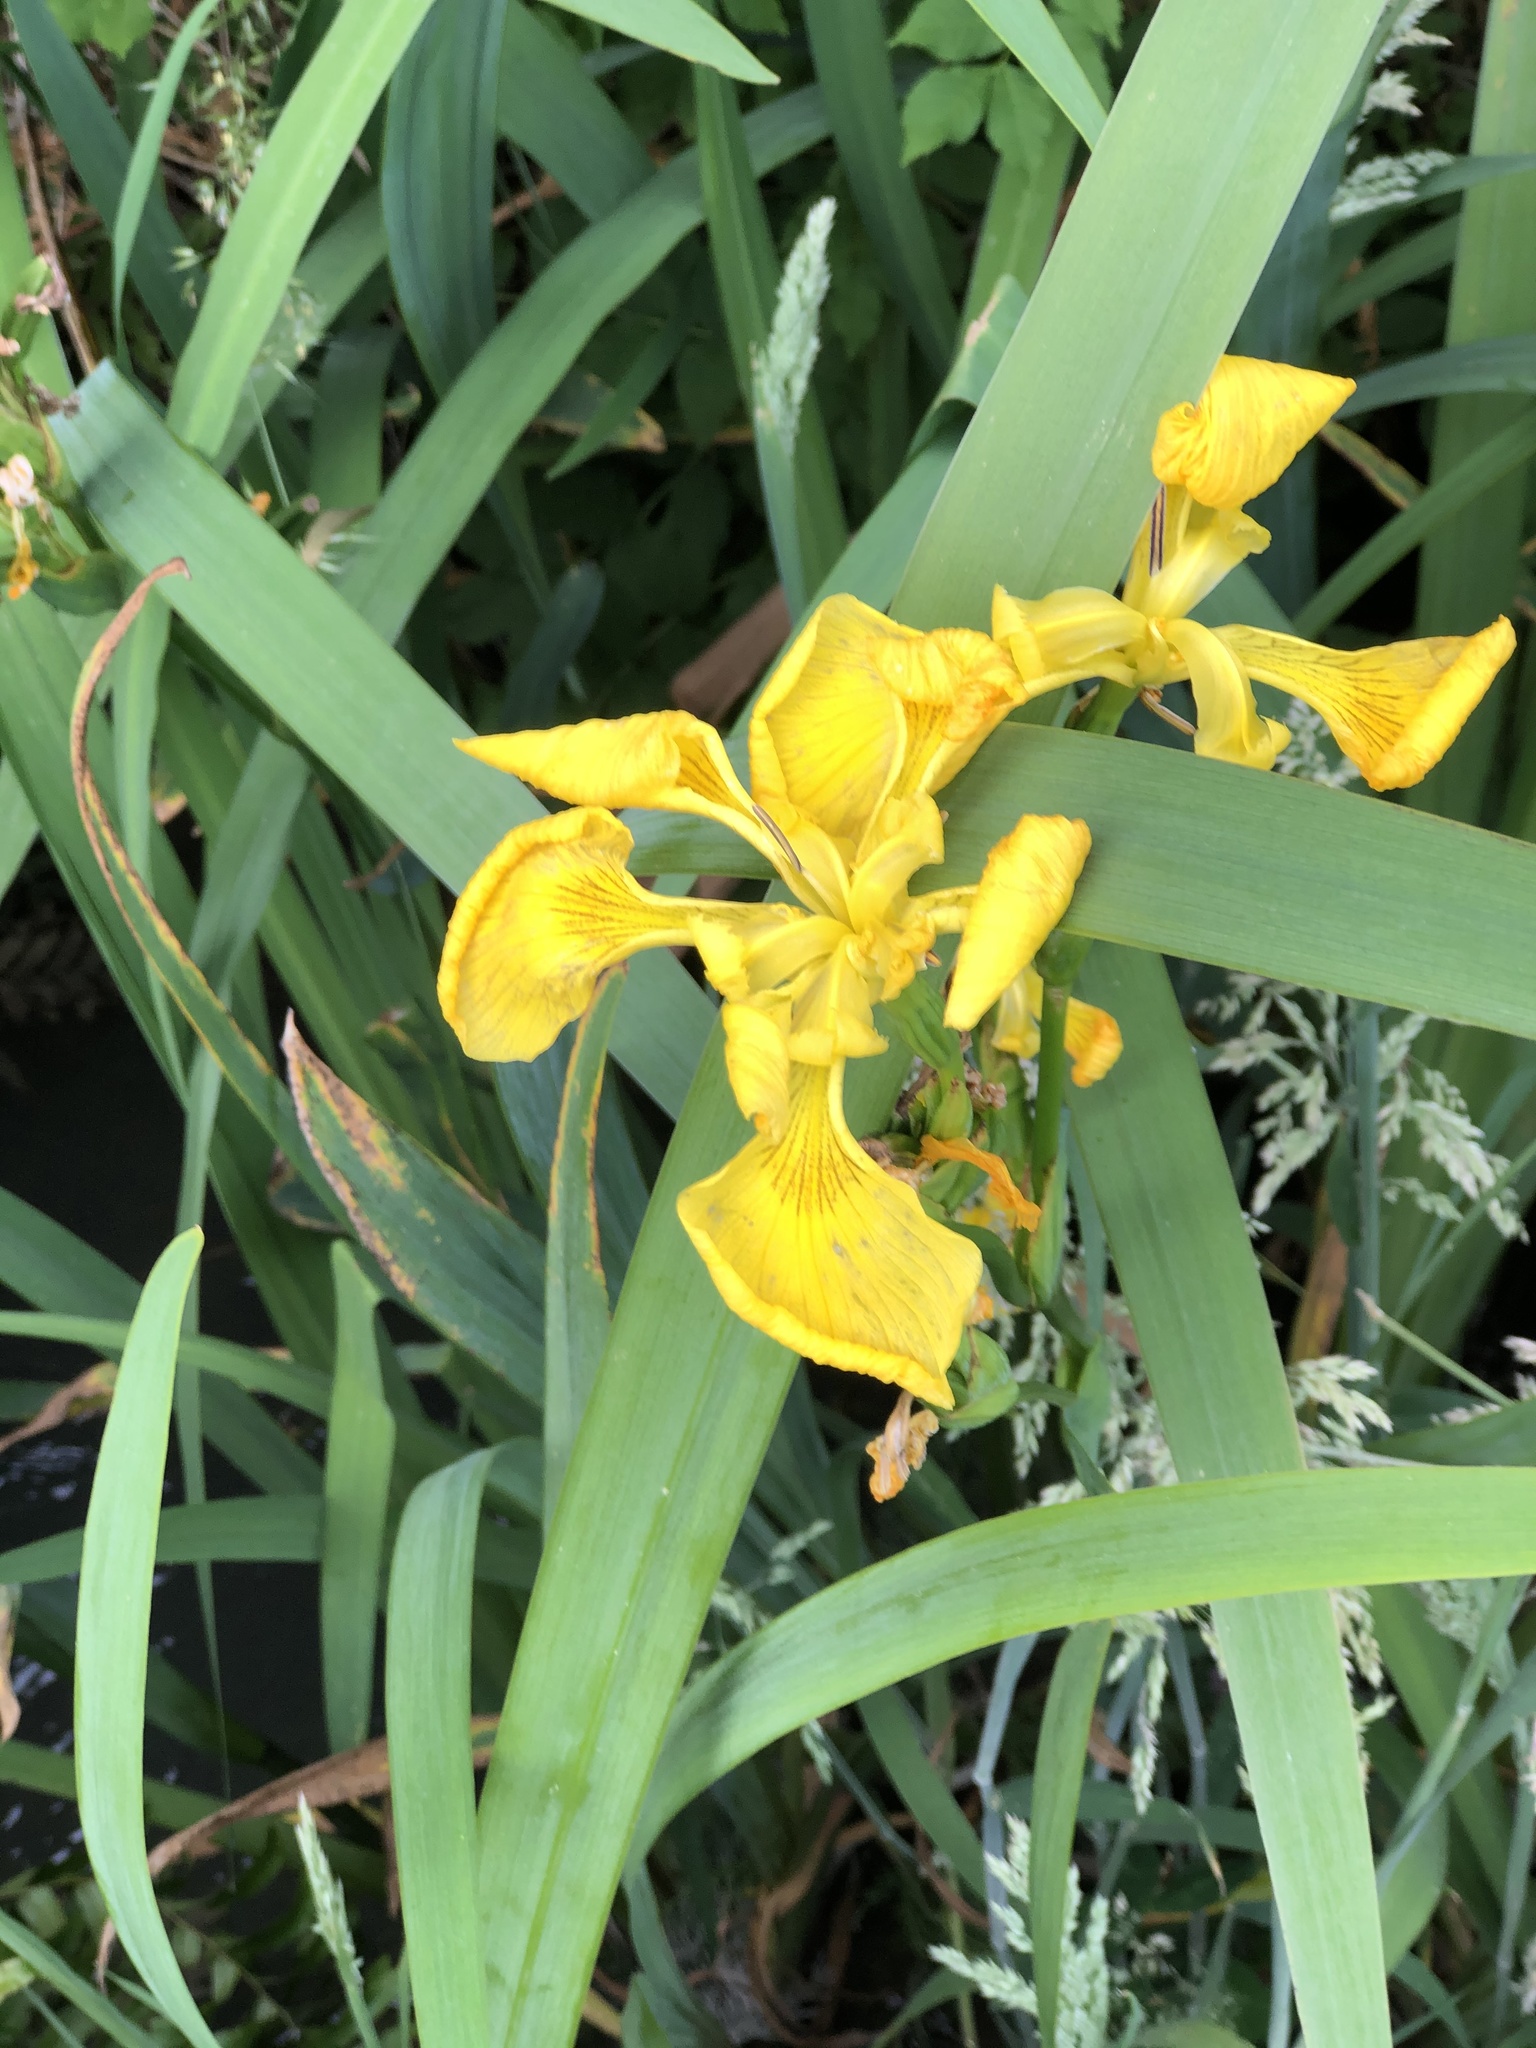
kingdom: Plantae
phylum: Tracheophyta
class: Liliopsida
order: Asparagales
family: Iridaceae
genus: Iris
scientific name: Iris pseudacorus
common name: Yellow flag
